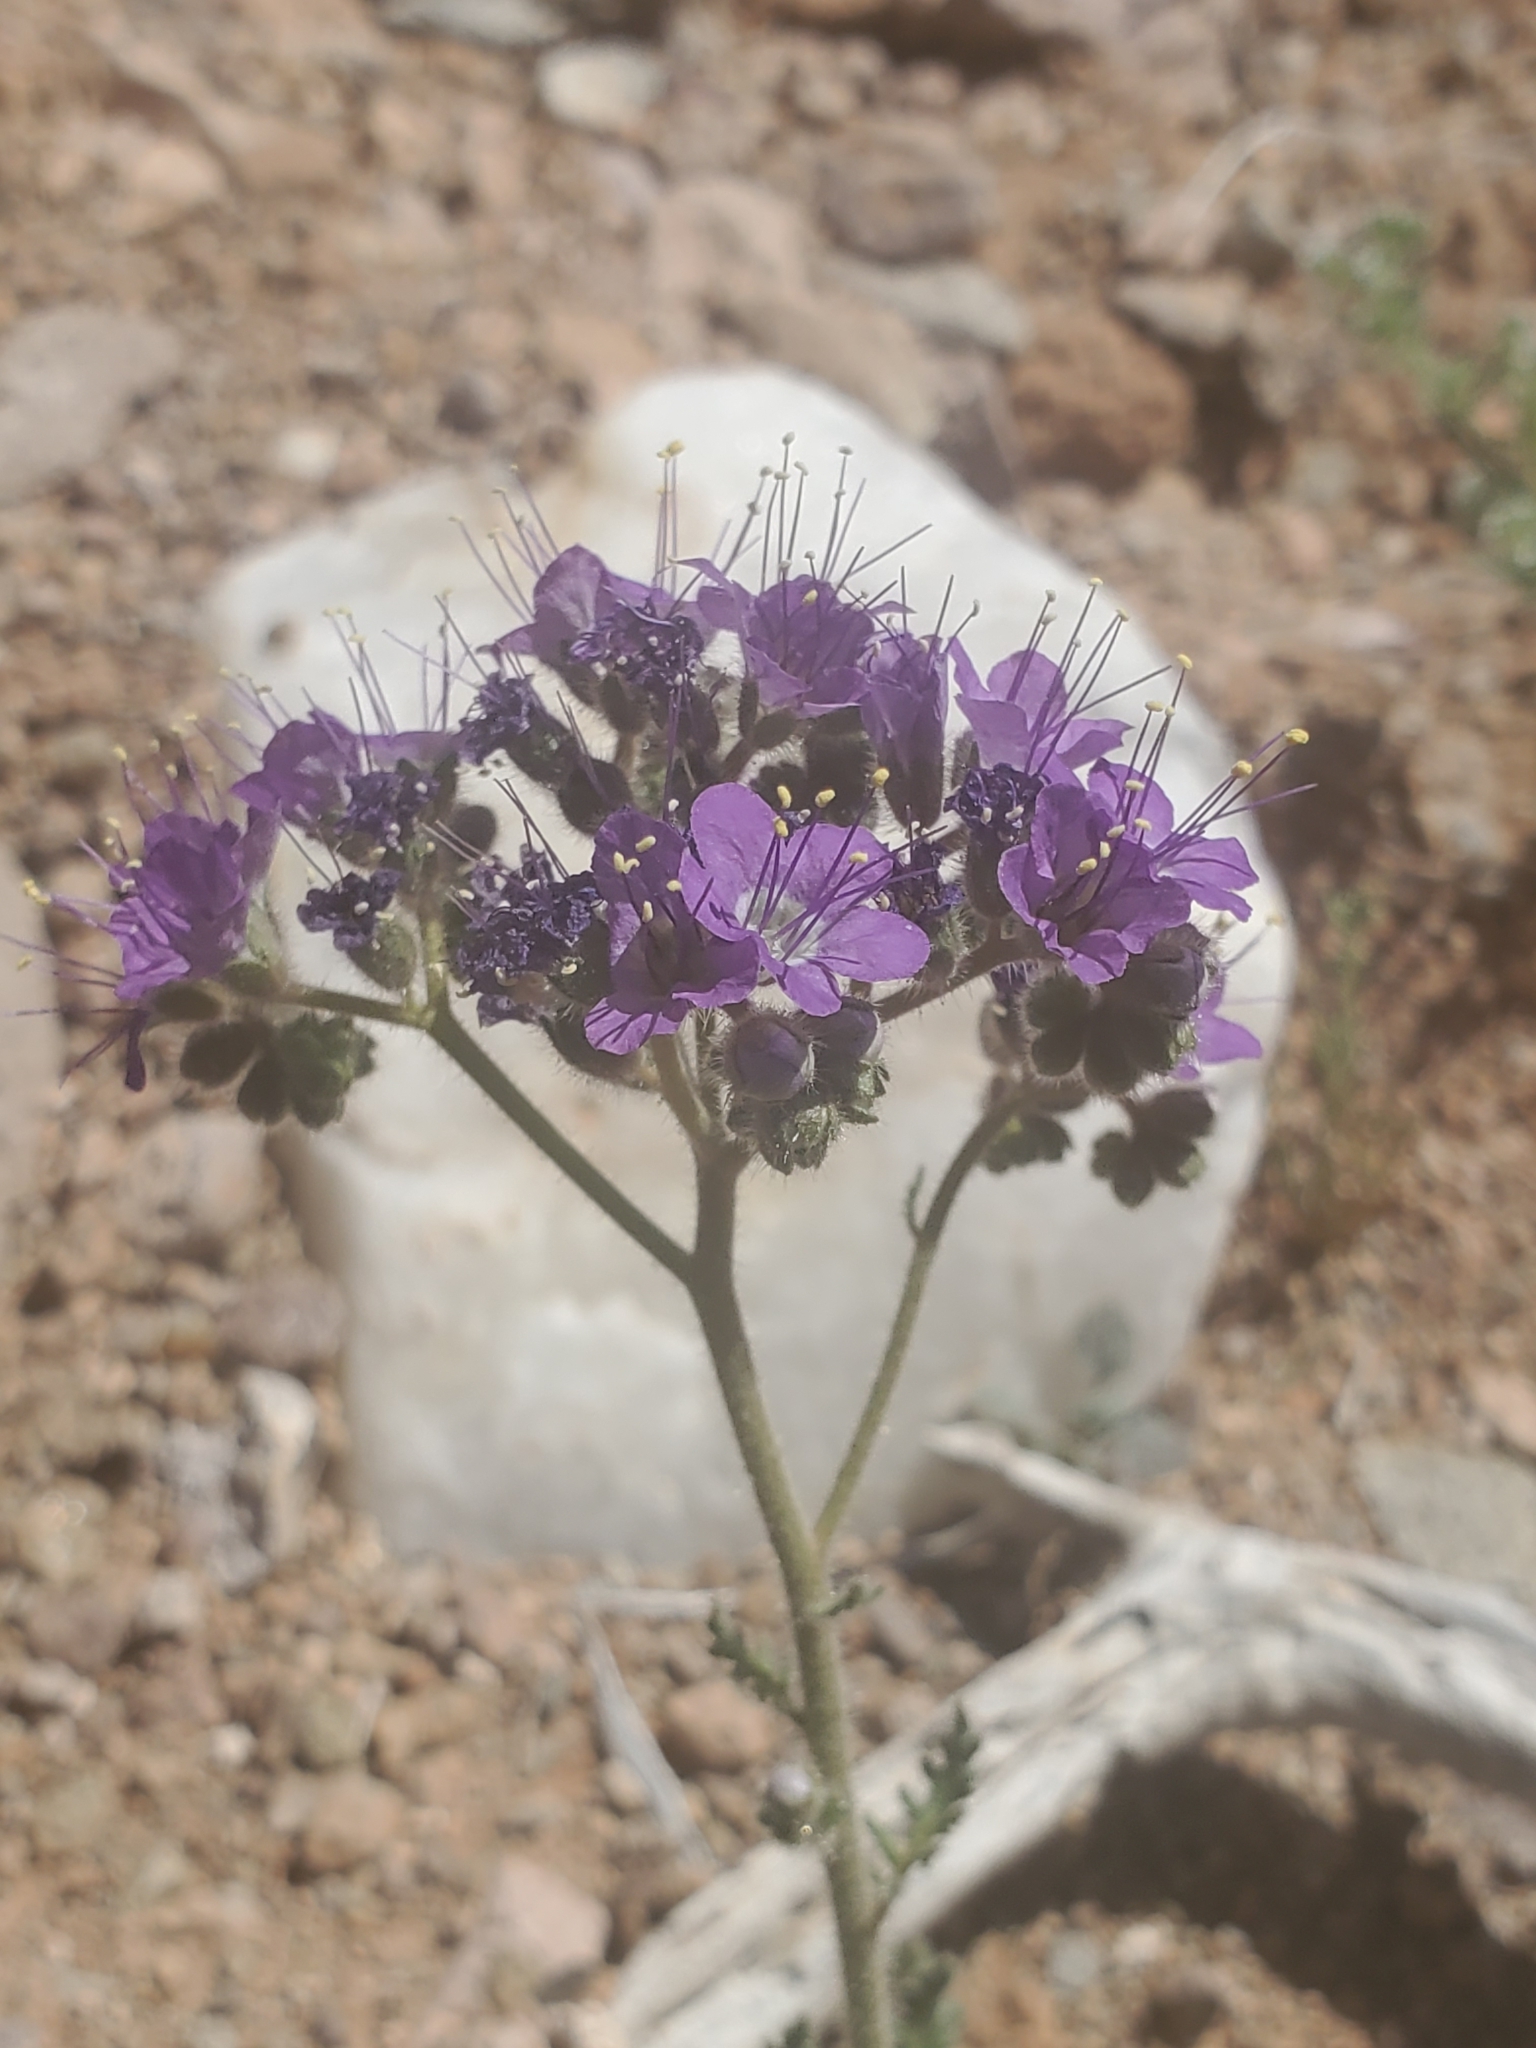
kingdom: Plantae
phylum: Tracheophyta
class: Magnoliopsida
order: Boraginales
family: Hydrophyllaceae
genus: Phacelia
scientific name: Phacelia crenulata
